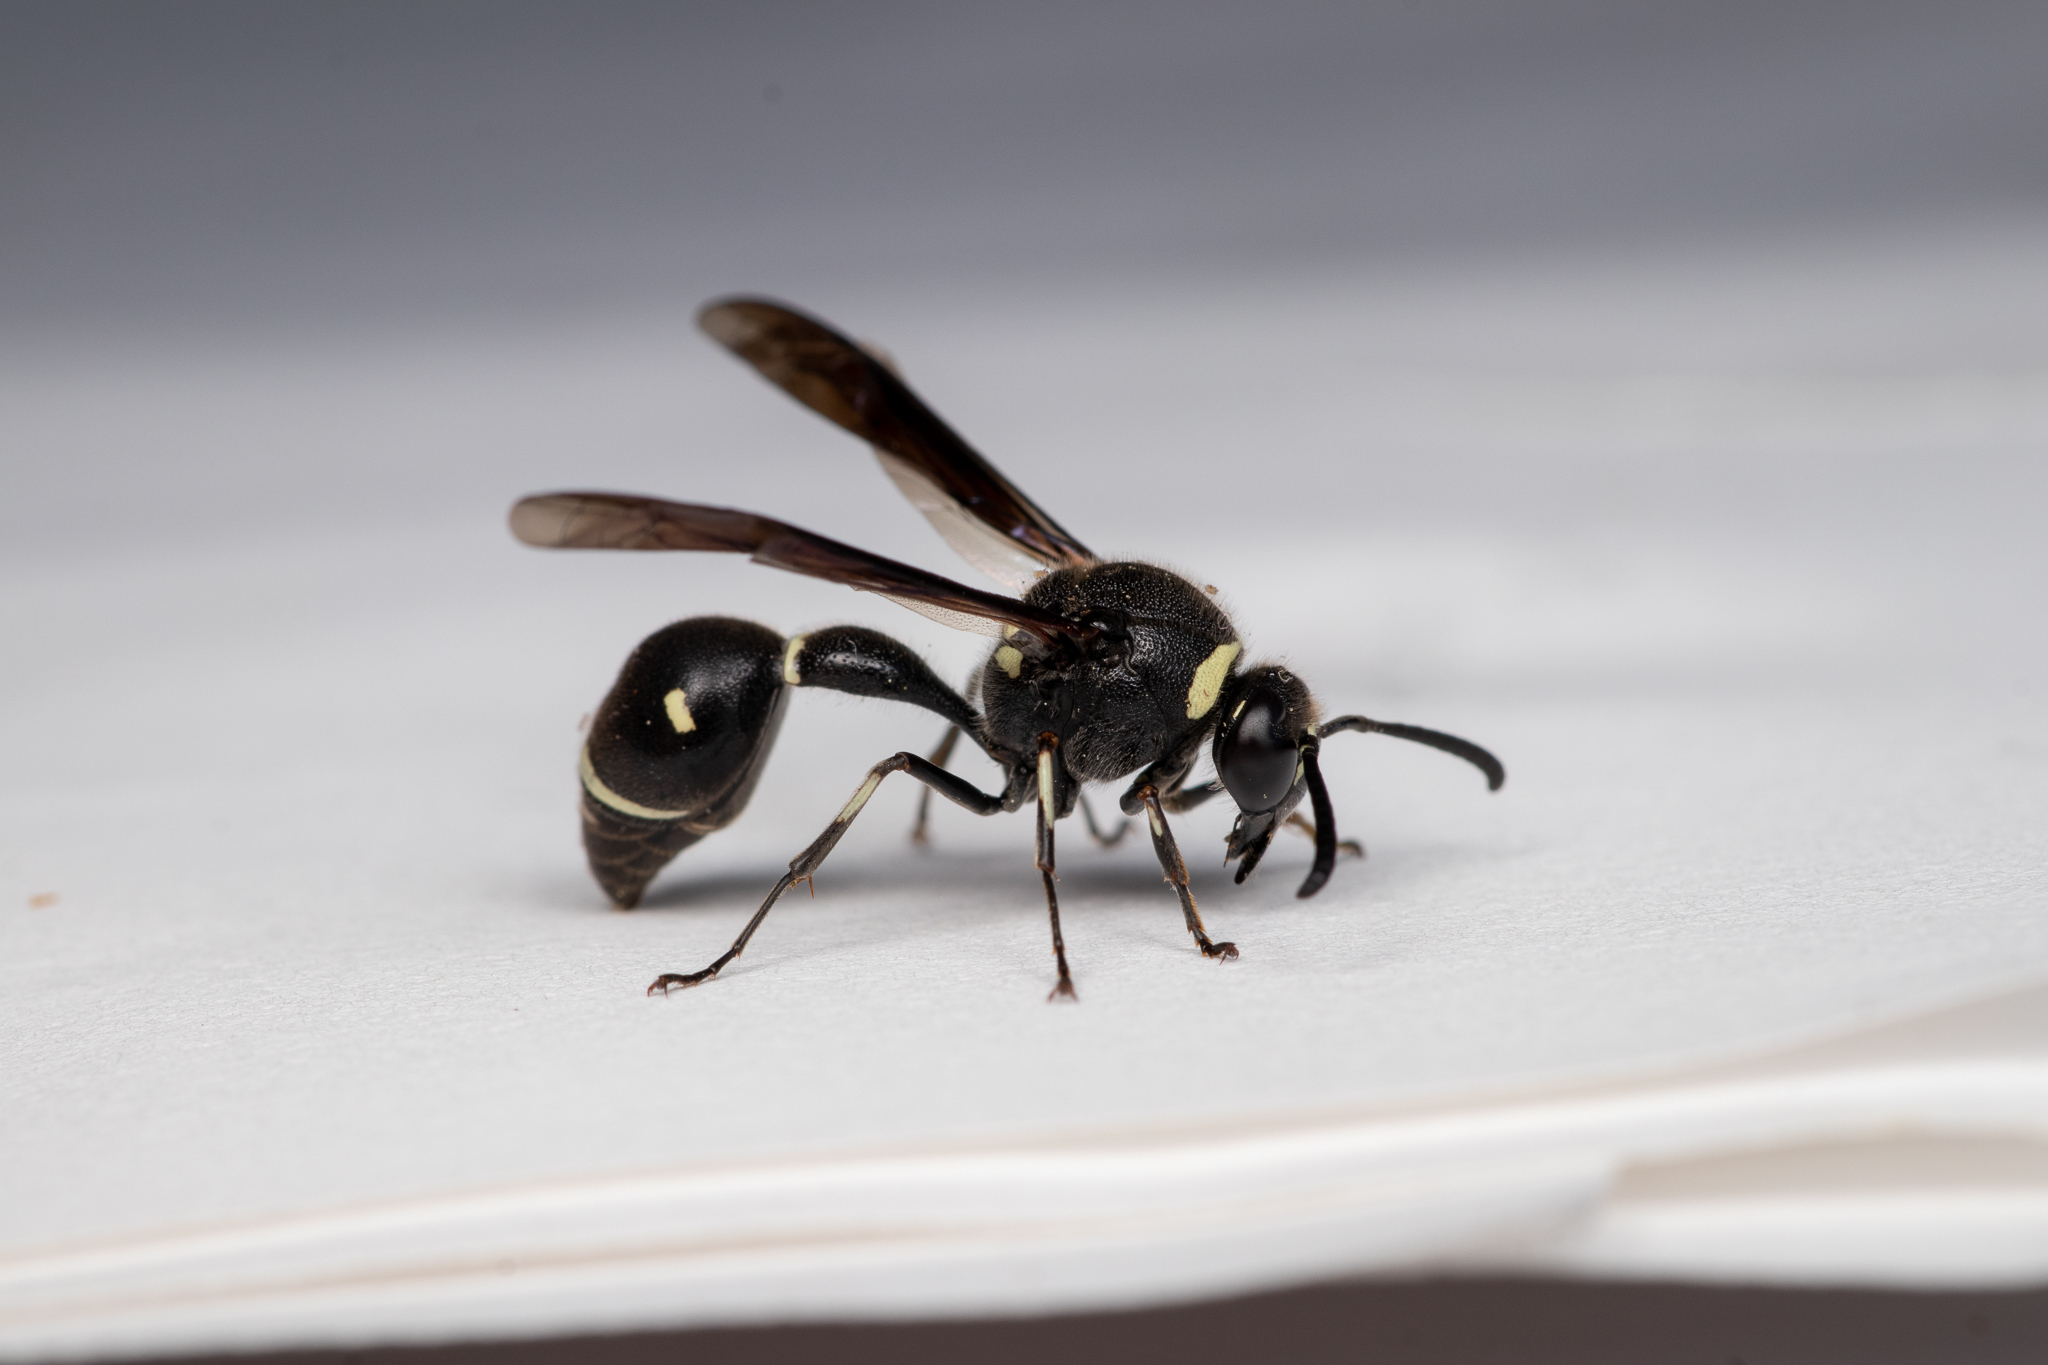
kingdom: Animalia
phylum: Arthropoda
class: Insecta
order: Hymenoptera
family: Vespidae
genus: Eumenes
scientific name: Eumenes fraternus
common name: Fraternal potter wasp
